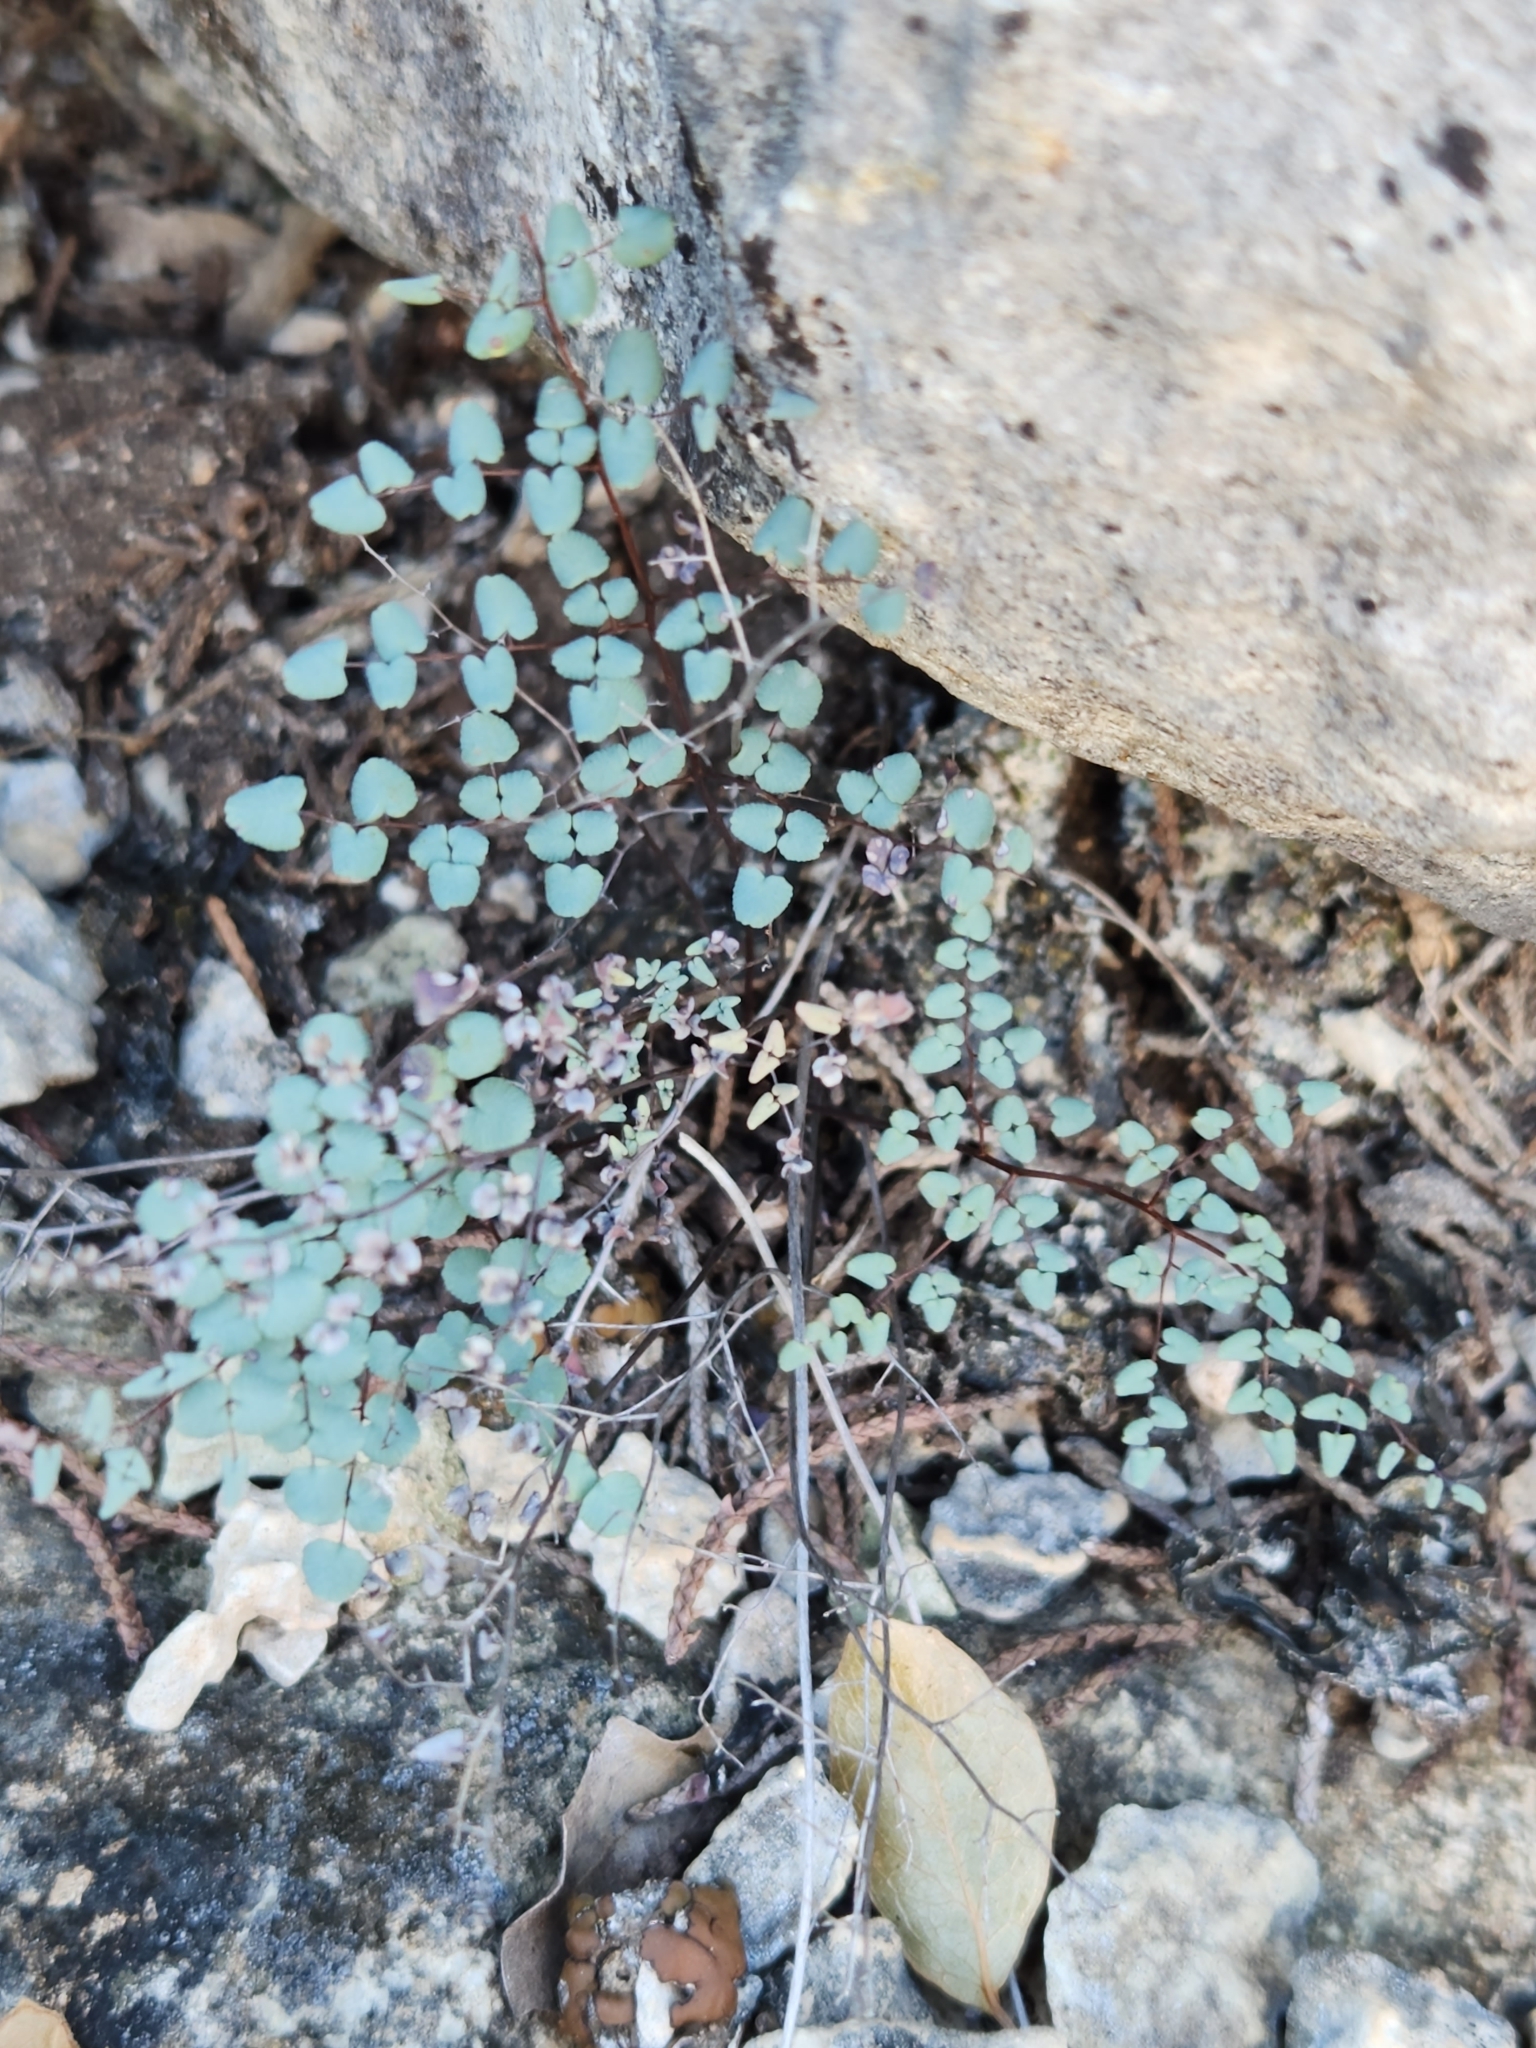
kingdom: Plantae
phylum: Tracheophyta
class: Polypodiopsida
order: Polypodiales
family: Pteridaceae
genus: Argyrochosma
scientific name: Argyrochosma microphylla
